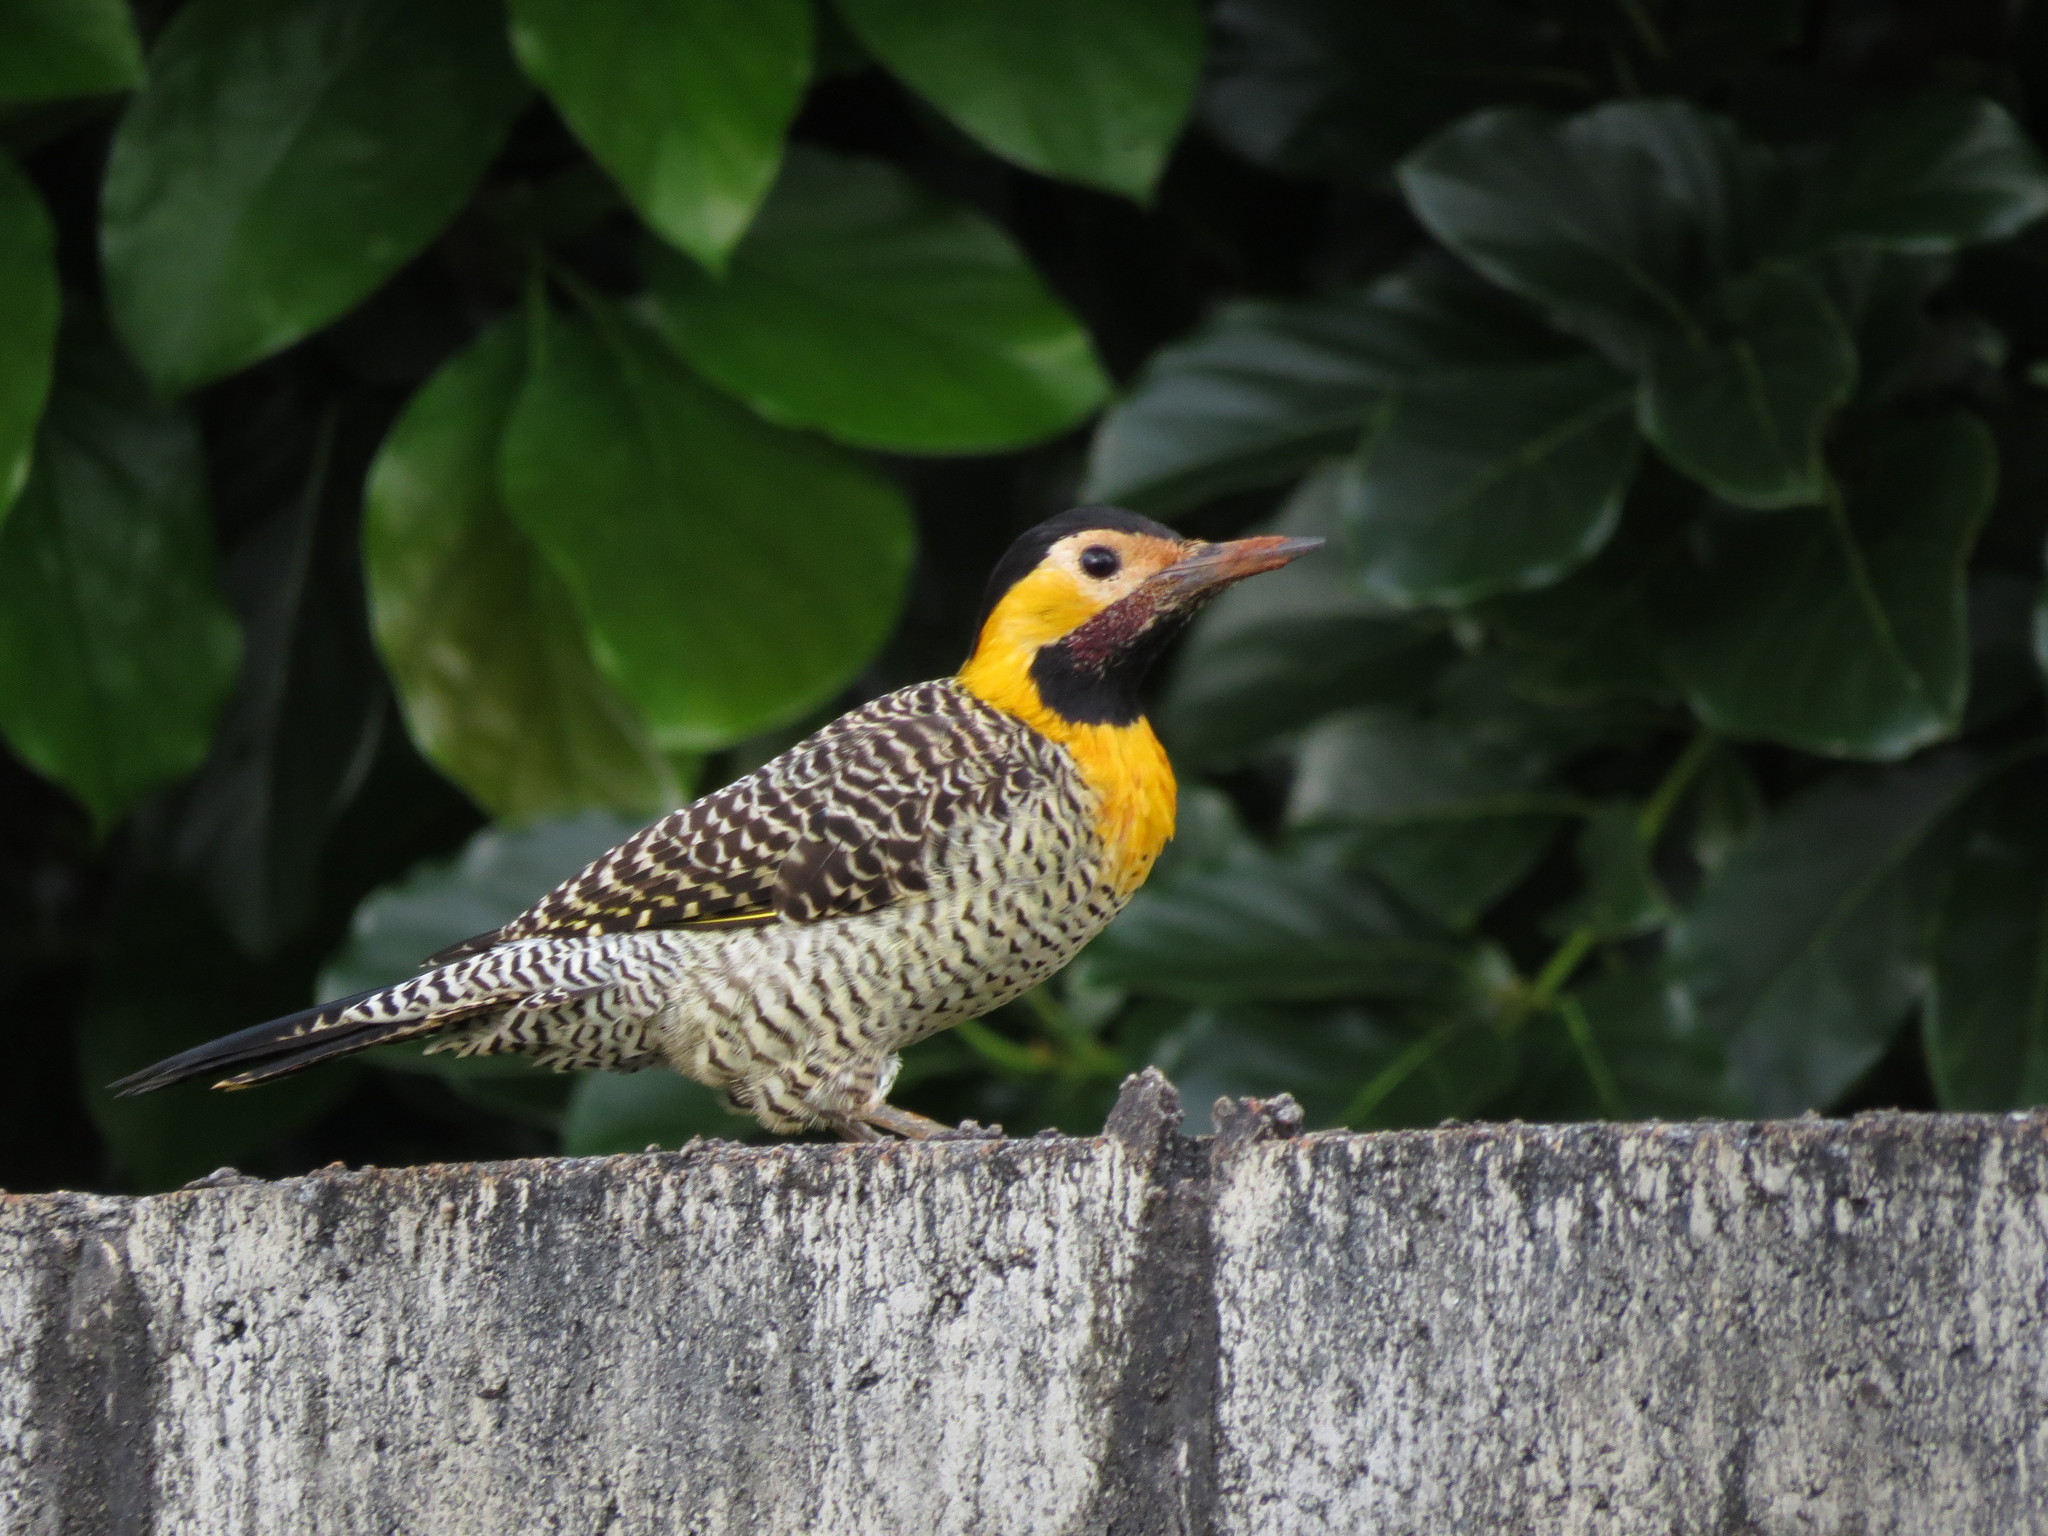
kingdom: Animalia
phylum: Chordata
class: Aves
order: Piciformes
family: Picidae
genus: Colaptes
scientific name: Colaptes campestris
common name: Campo flicker
